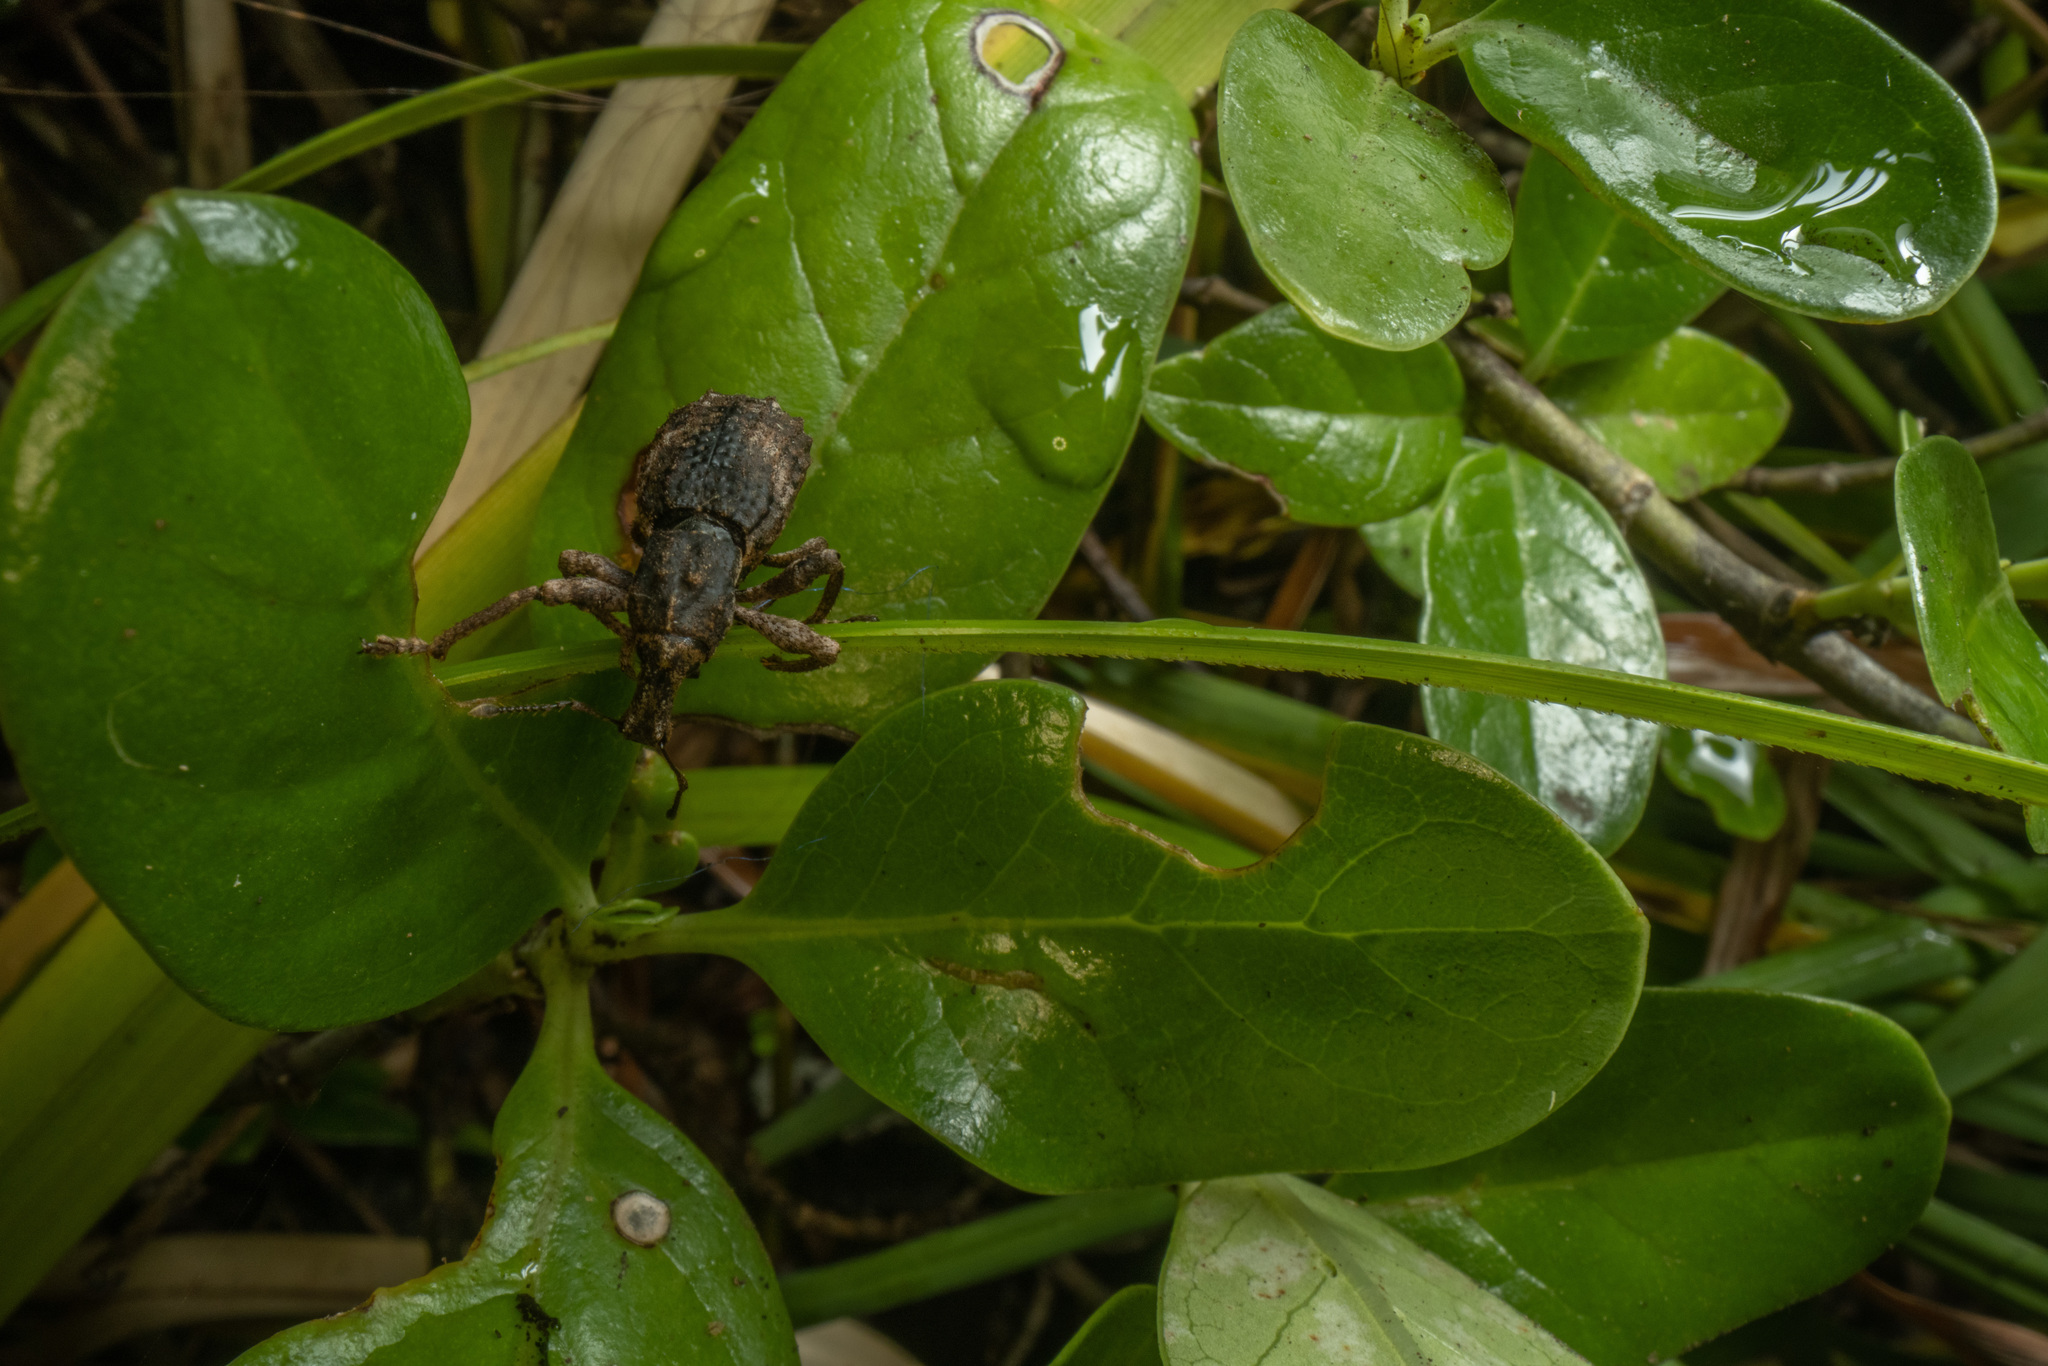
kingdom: Animalia
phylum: Arthropoda
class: Insecta
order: Coleoptera
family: Curculionidae
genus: Anagotus
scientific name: Anagotus rugosus
